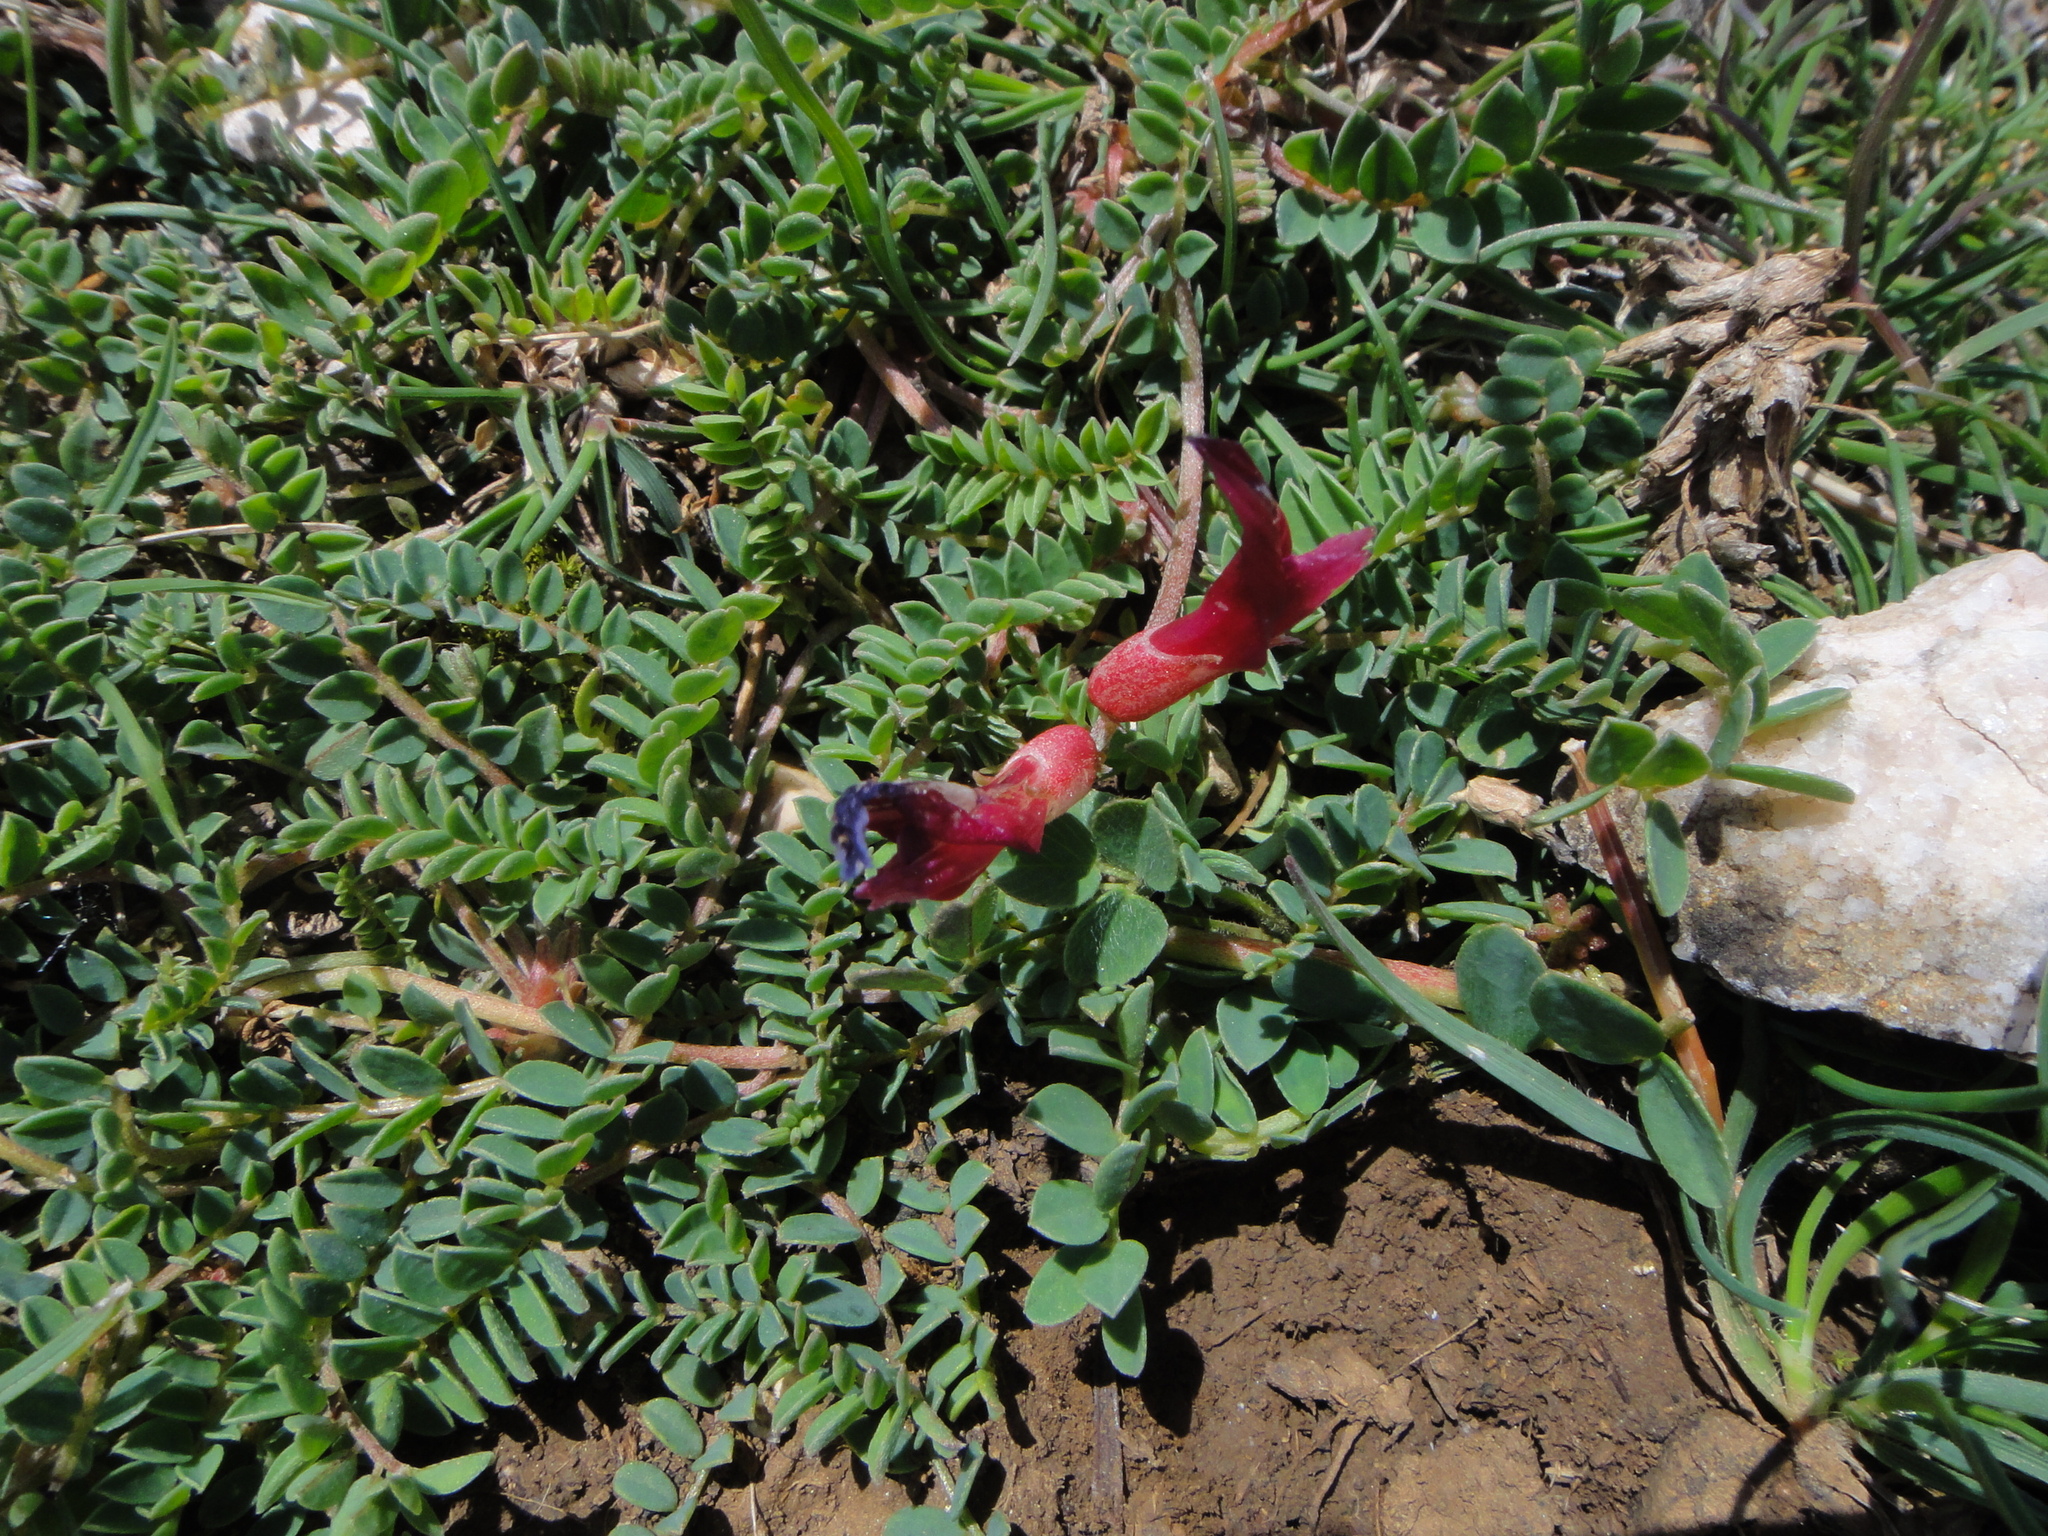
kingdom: Plantae
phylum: Tracheophyta
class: Magnoliopsida
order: Fabales
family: Fabaceae
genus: Astragalus
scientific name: Astragalus monspessulanus
